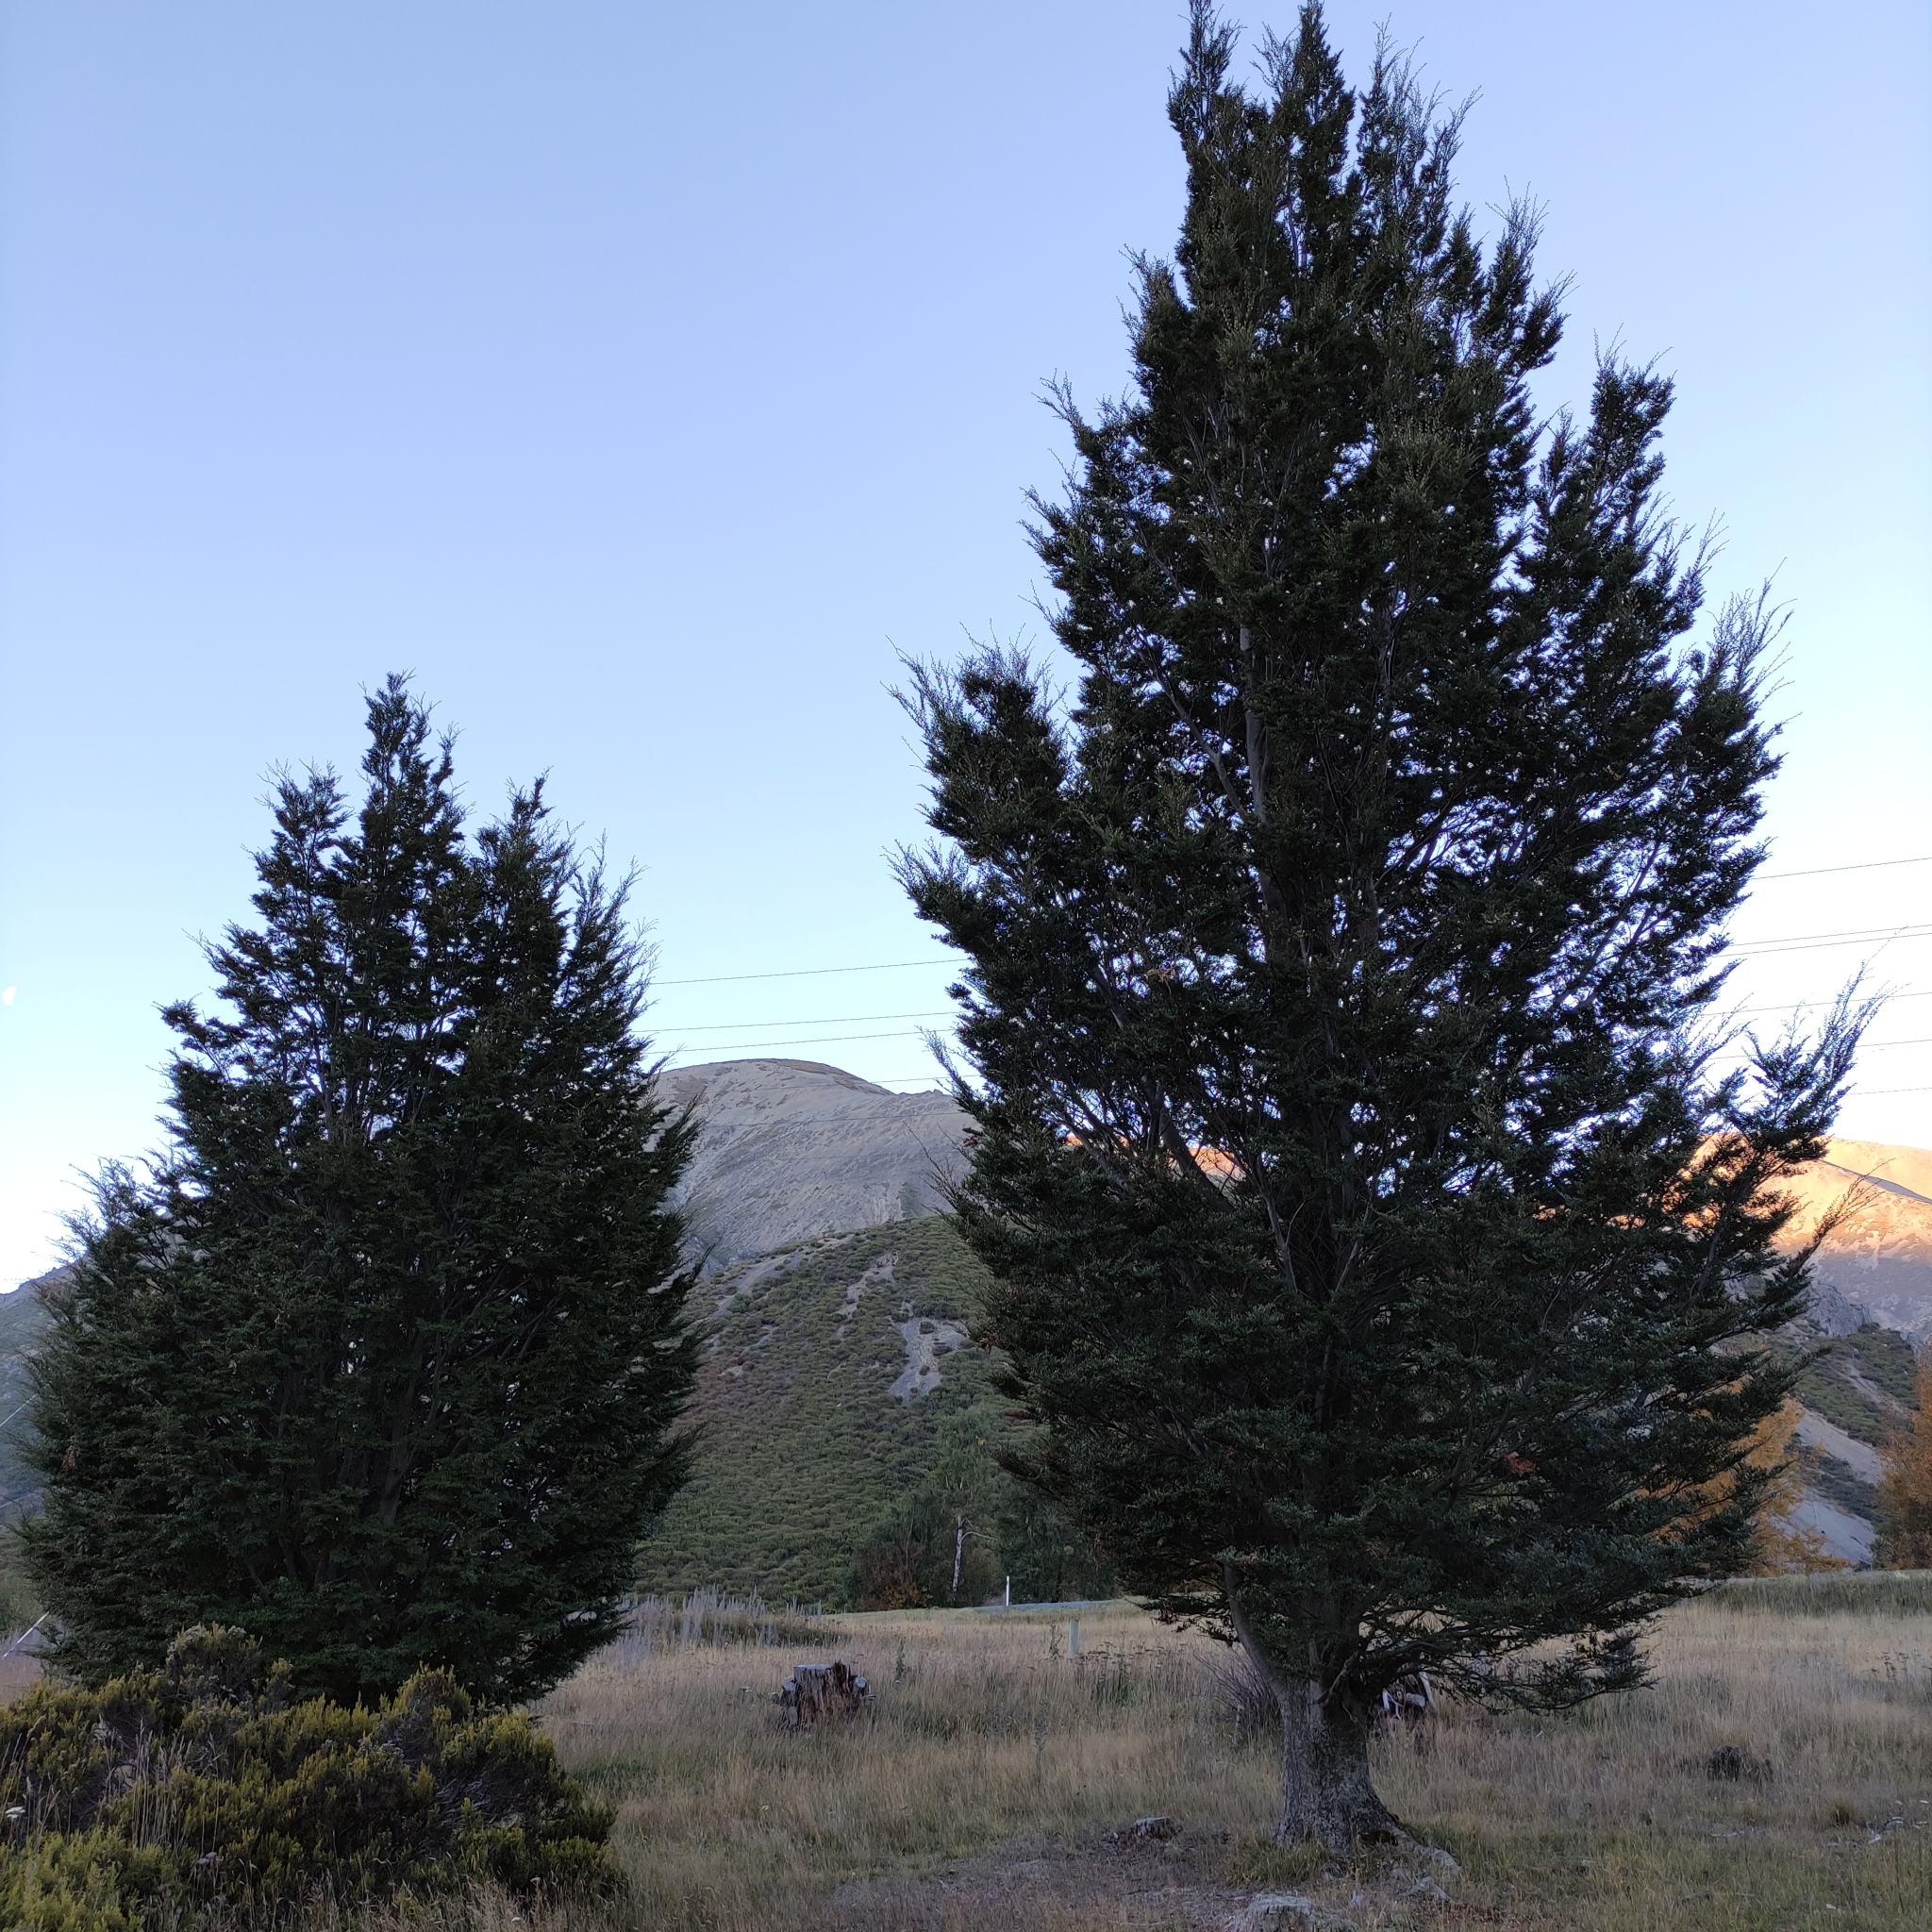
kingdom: Plantae
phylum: Tracheophyta
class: Magnoliopsida
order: Fagales
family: Nothofagaceae
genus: Nothofagus
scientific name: Nothofagus cliffortioides
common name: Mountain beech
